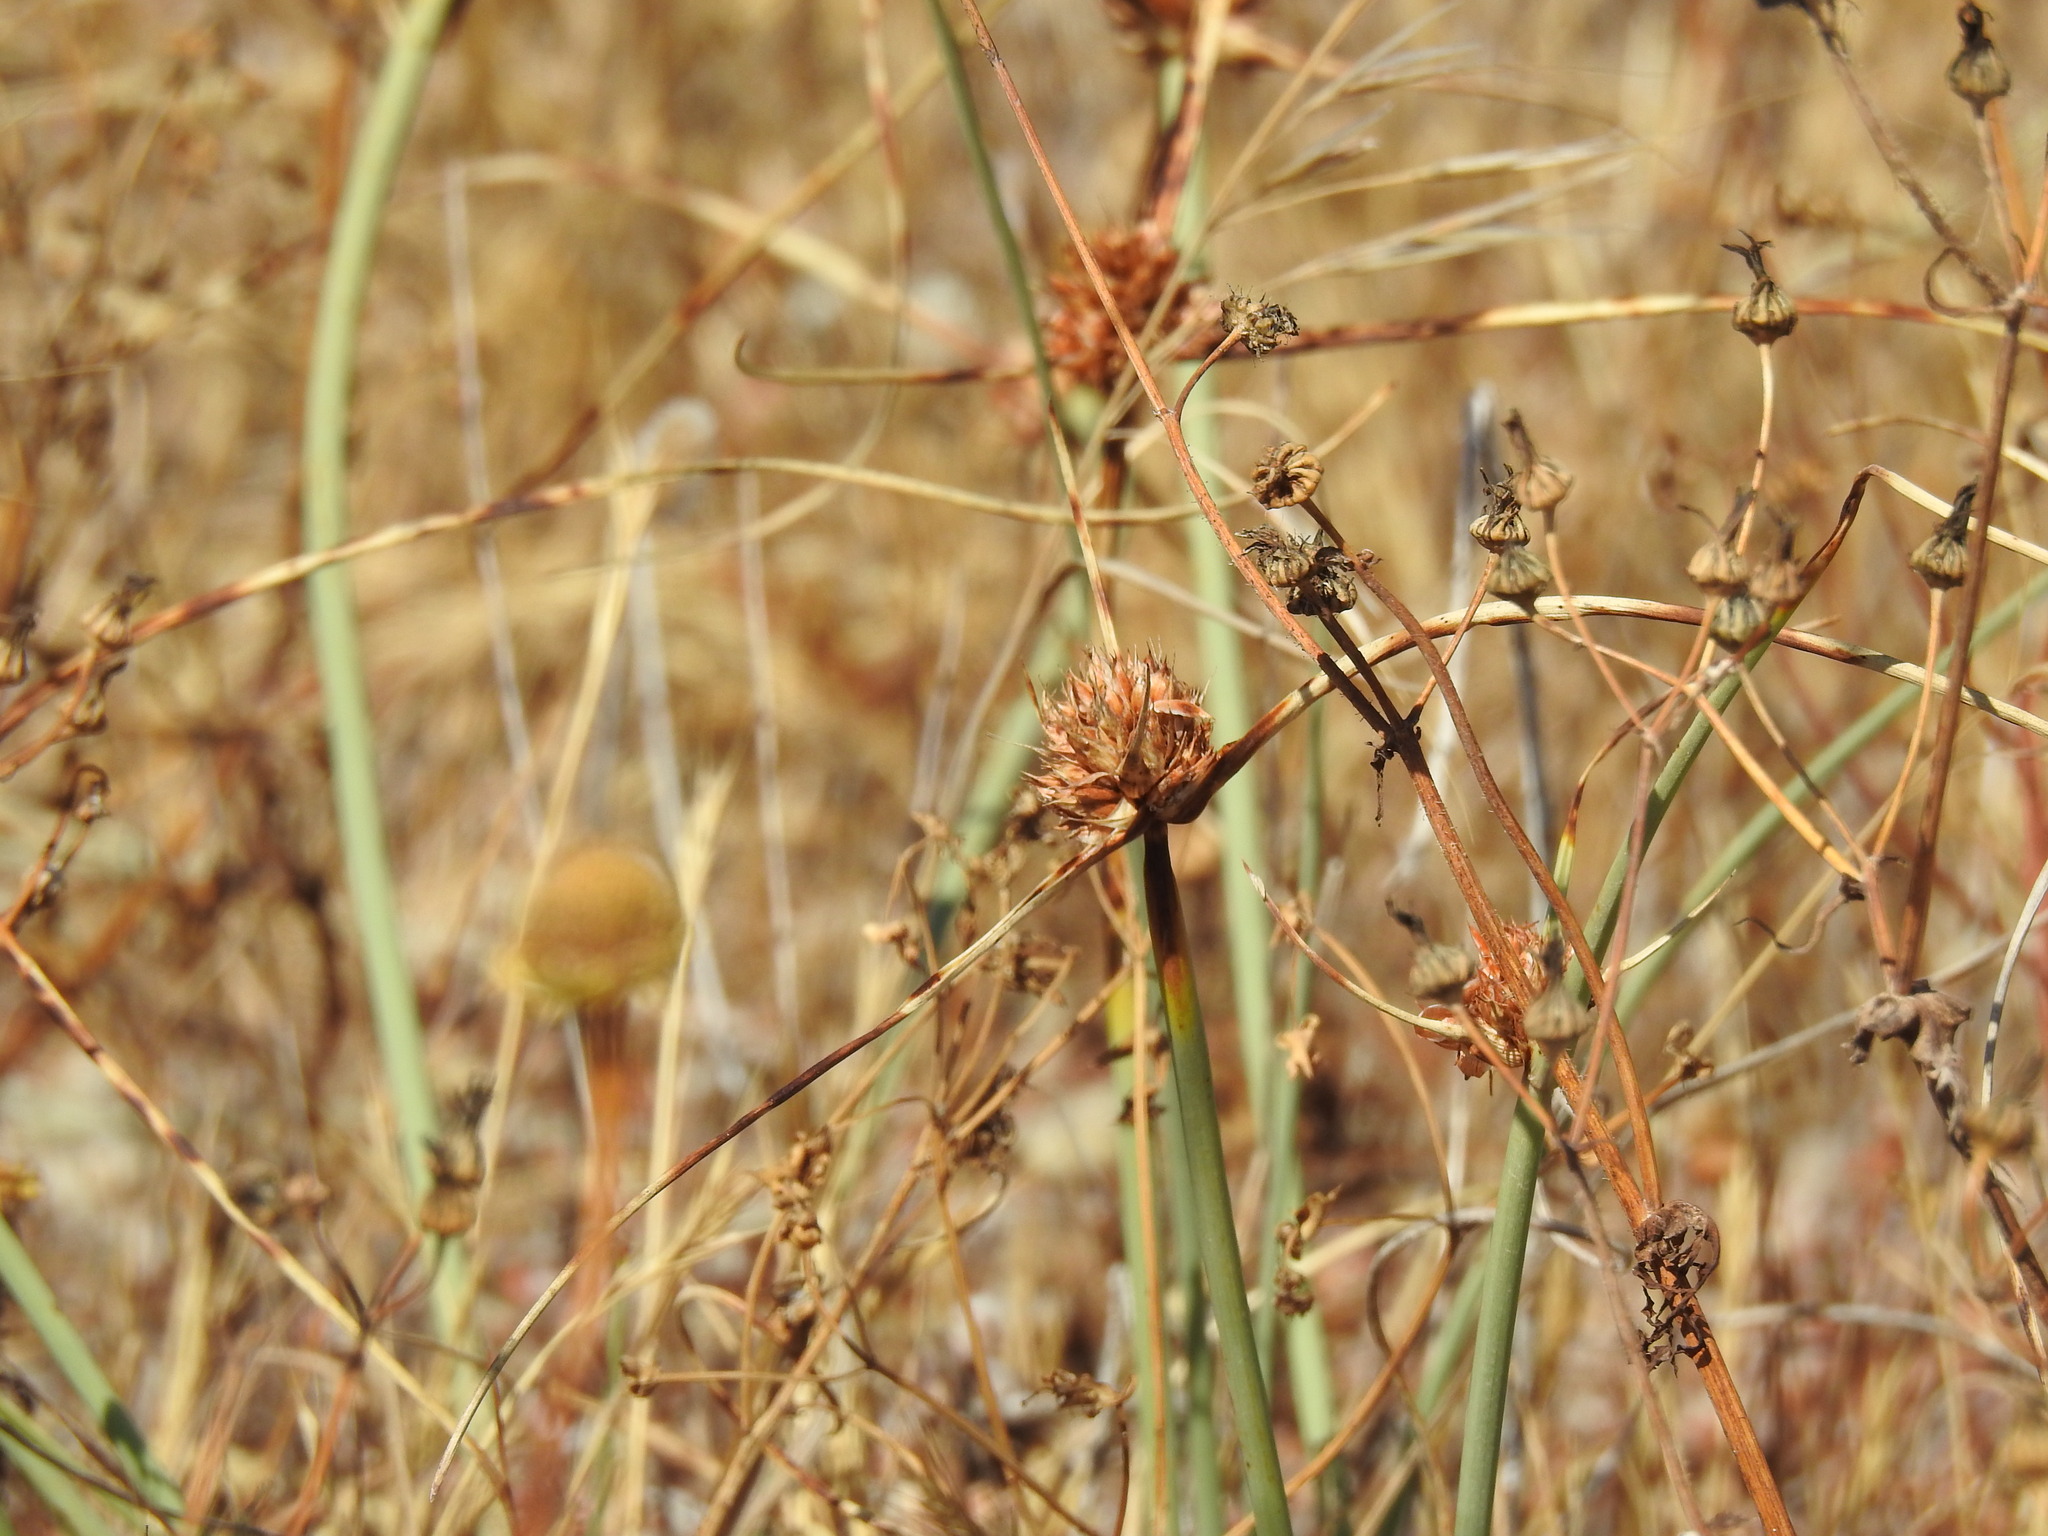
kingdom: Plantae
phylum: Tracheophyta
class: Liliopsida
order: Poales
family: Cyperaceae
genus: Cyperus
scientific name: Cyperus capitatus
